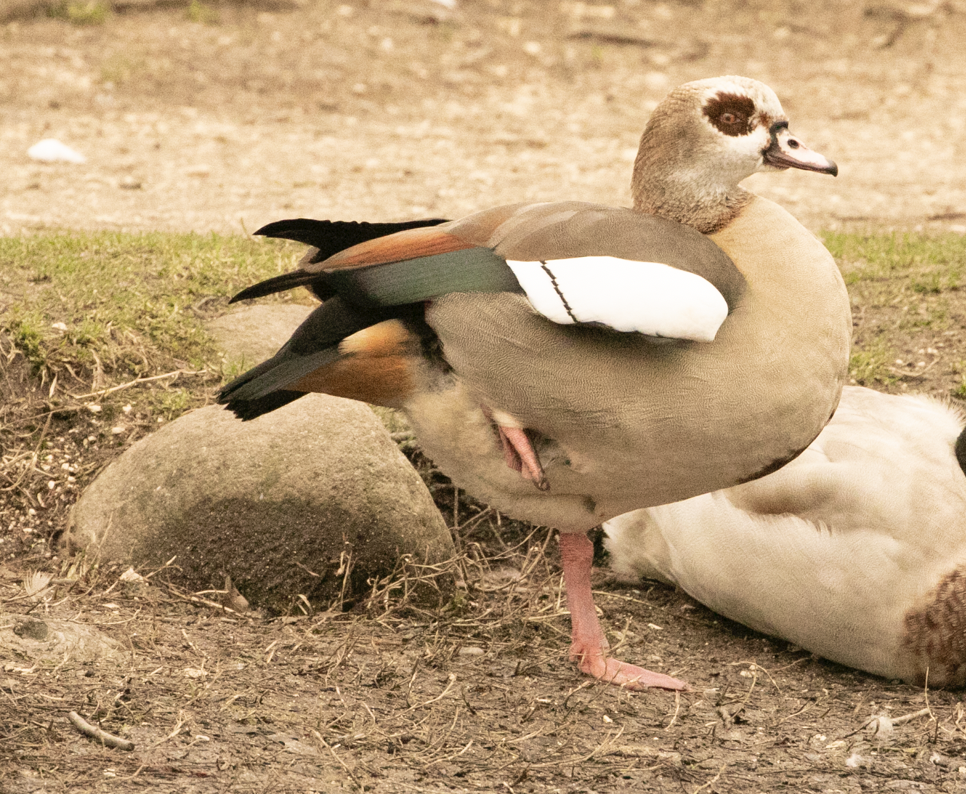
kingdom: Animalia
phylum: Chordata
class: Aves
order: Anseriformes
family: Anatidae
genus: Alopochen
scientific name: Alopochen aegyptiaca
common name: Egyptian goose
